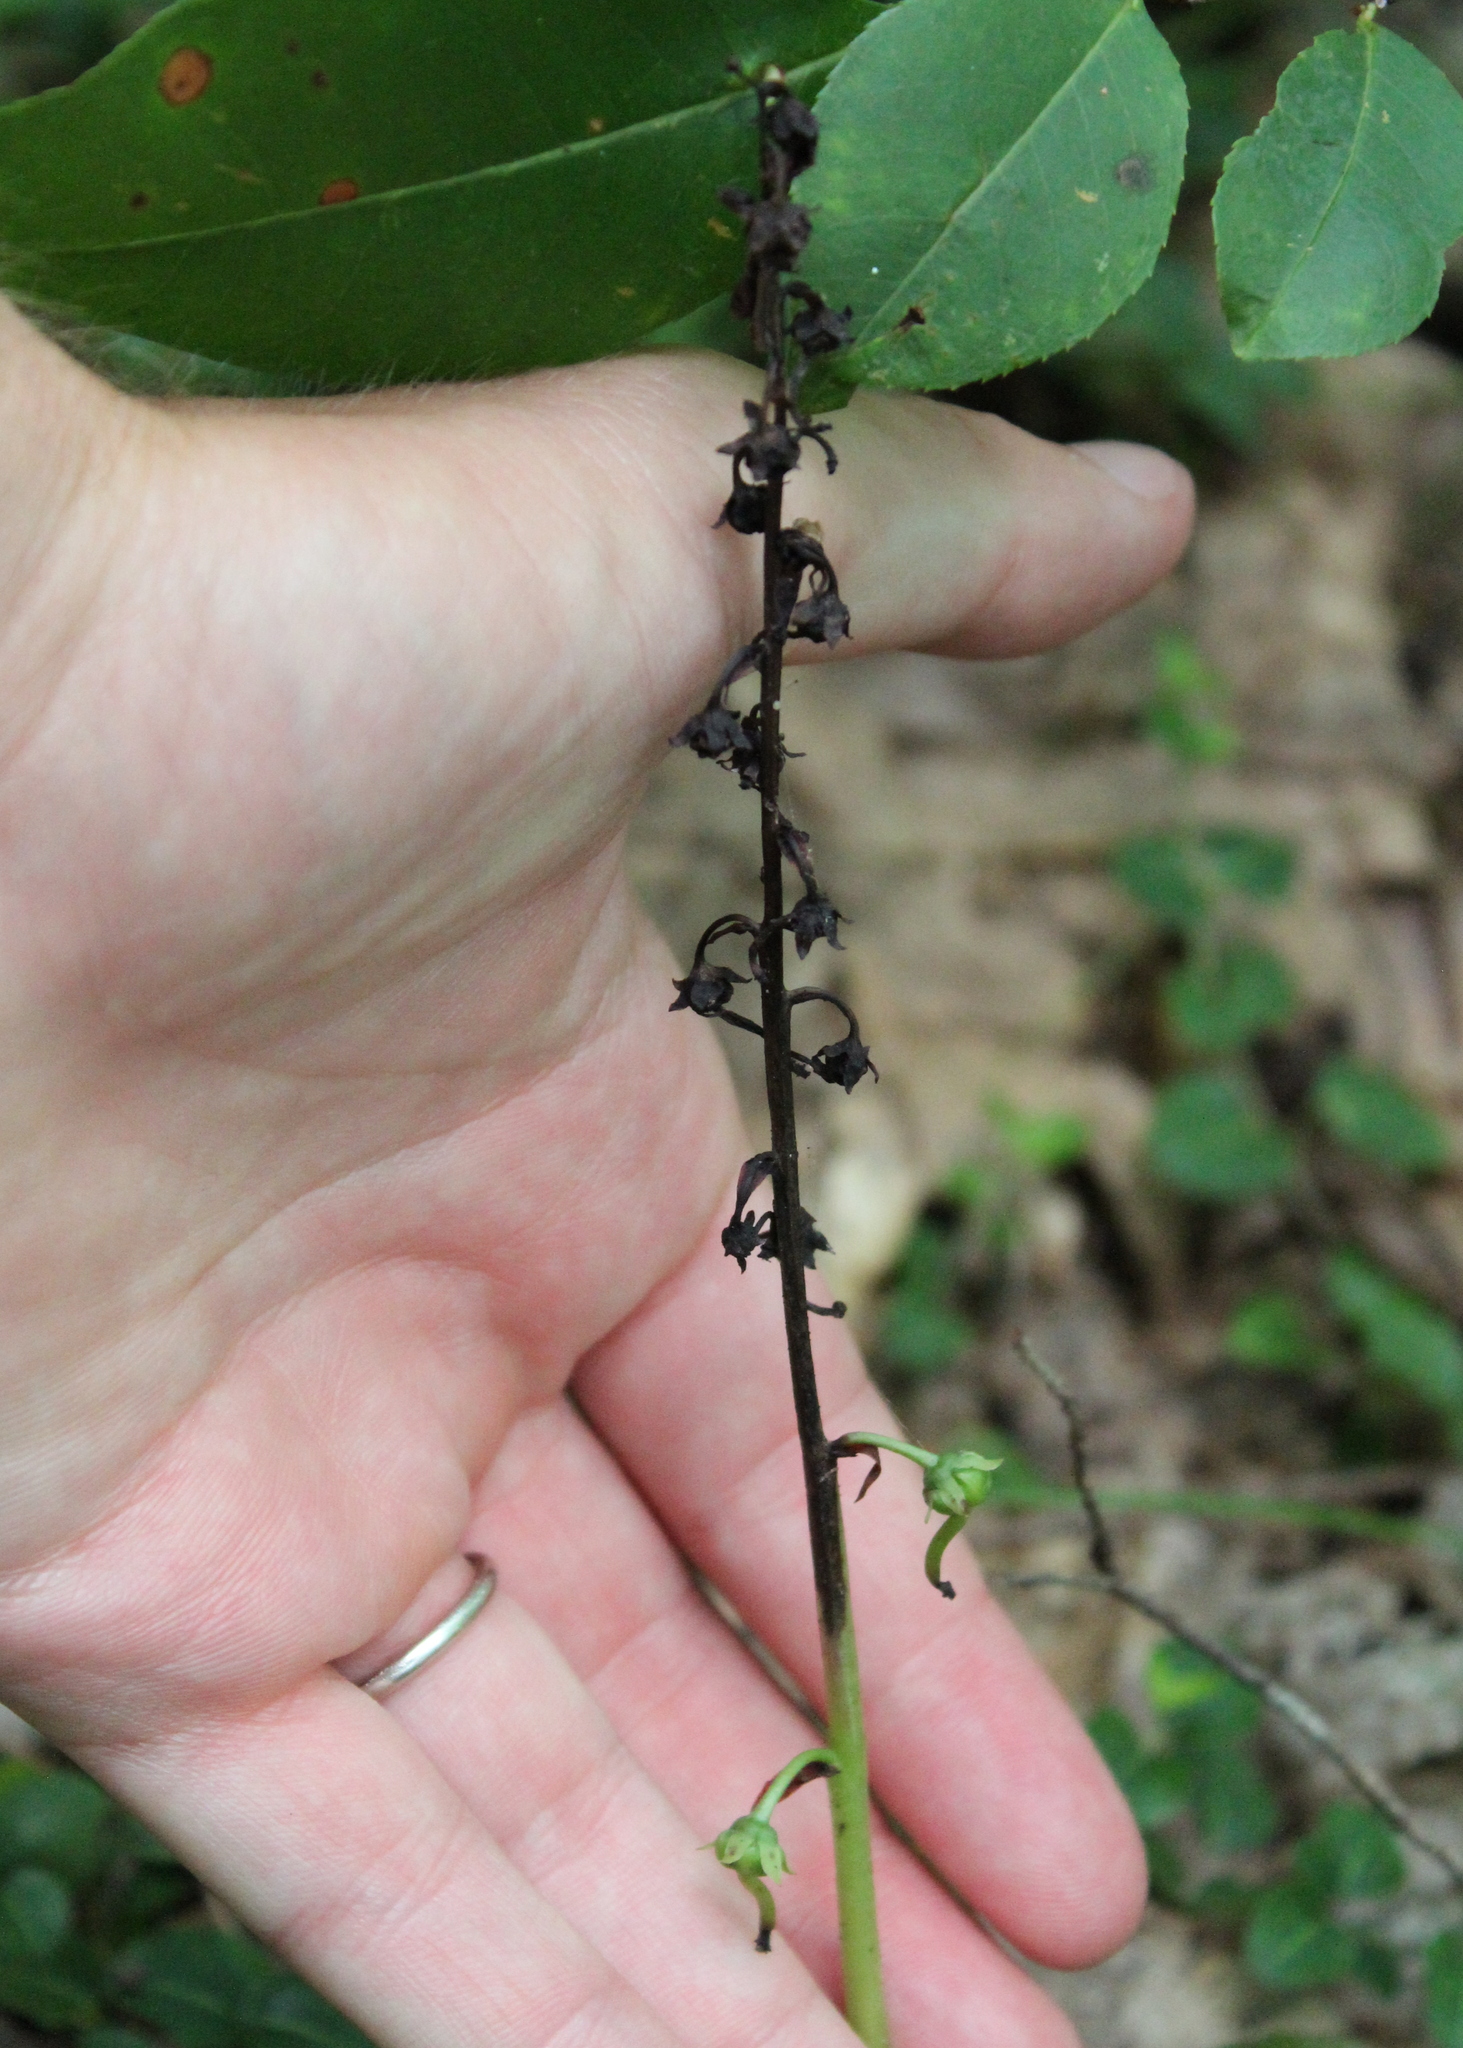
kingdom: Plantae
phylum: Tracheophyta
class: Magnoliopsida
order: Ericales
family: Ericaceae
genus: Pyrola
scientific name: Pyrola elliptica
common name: Shinleaf
